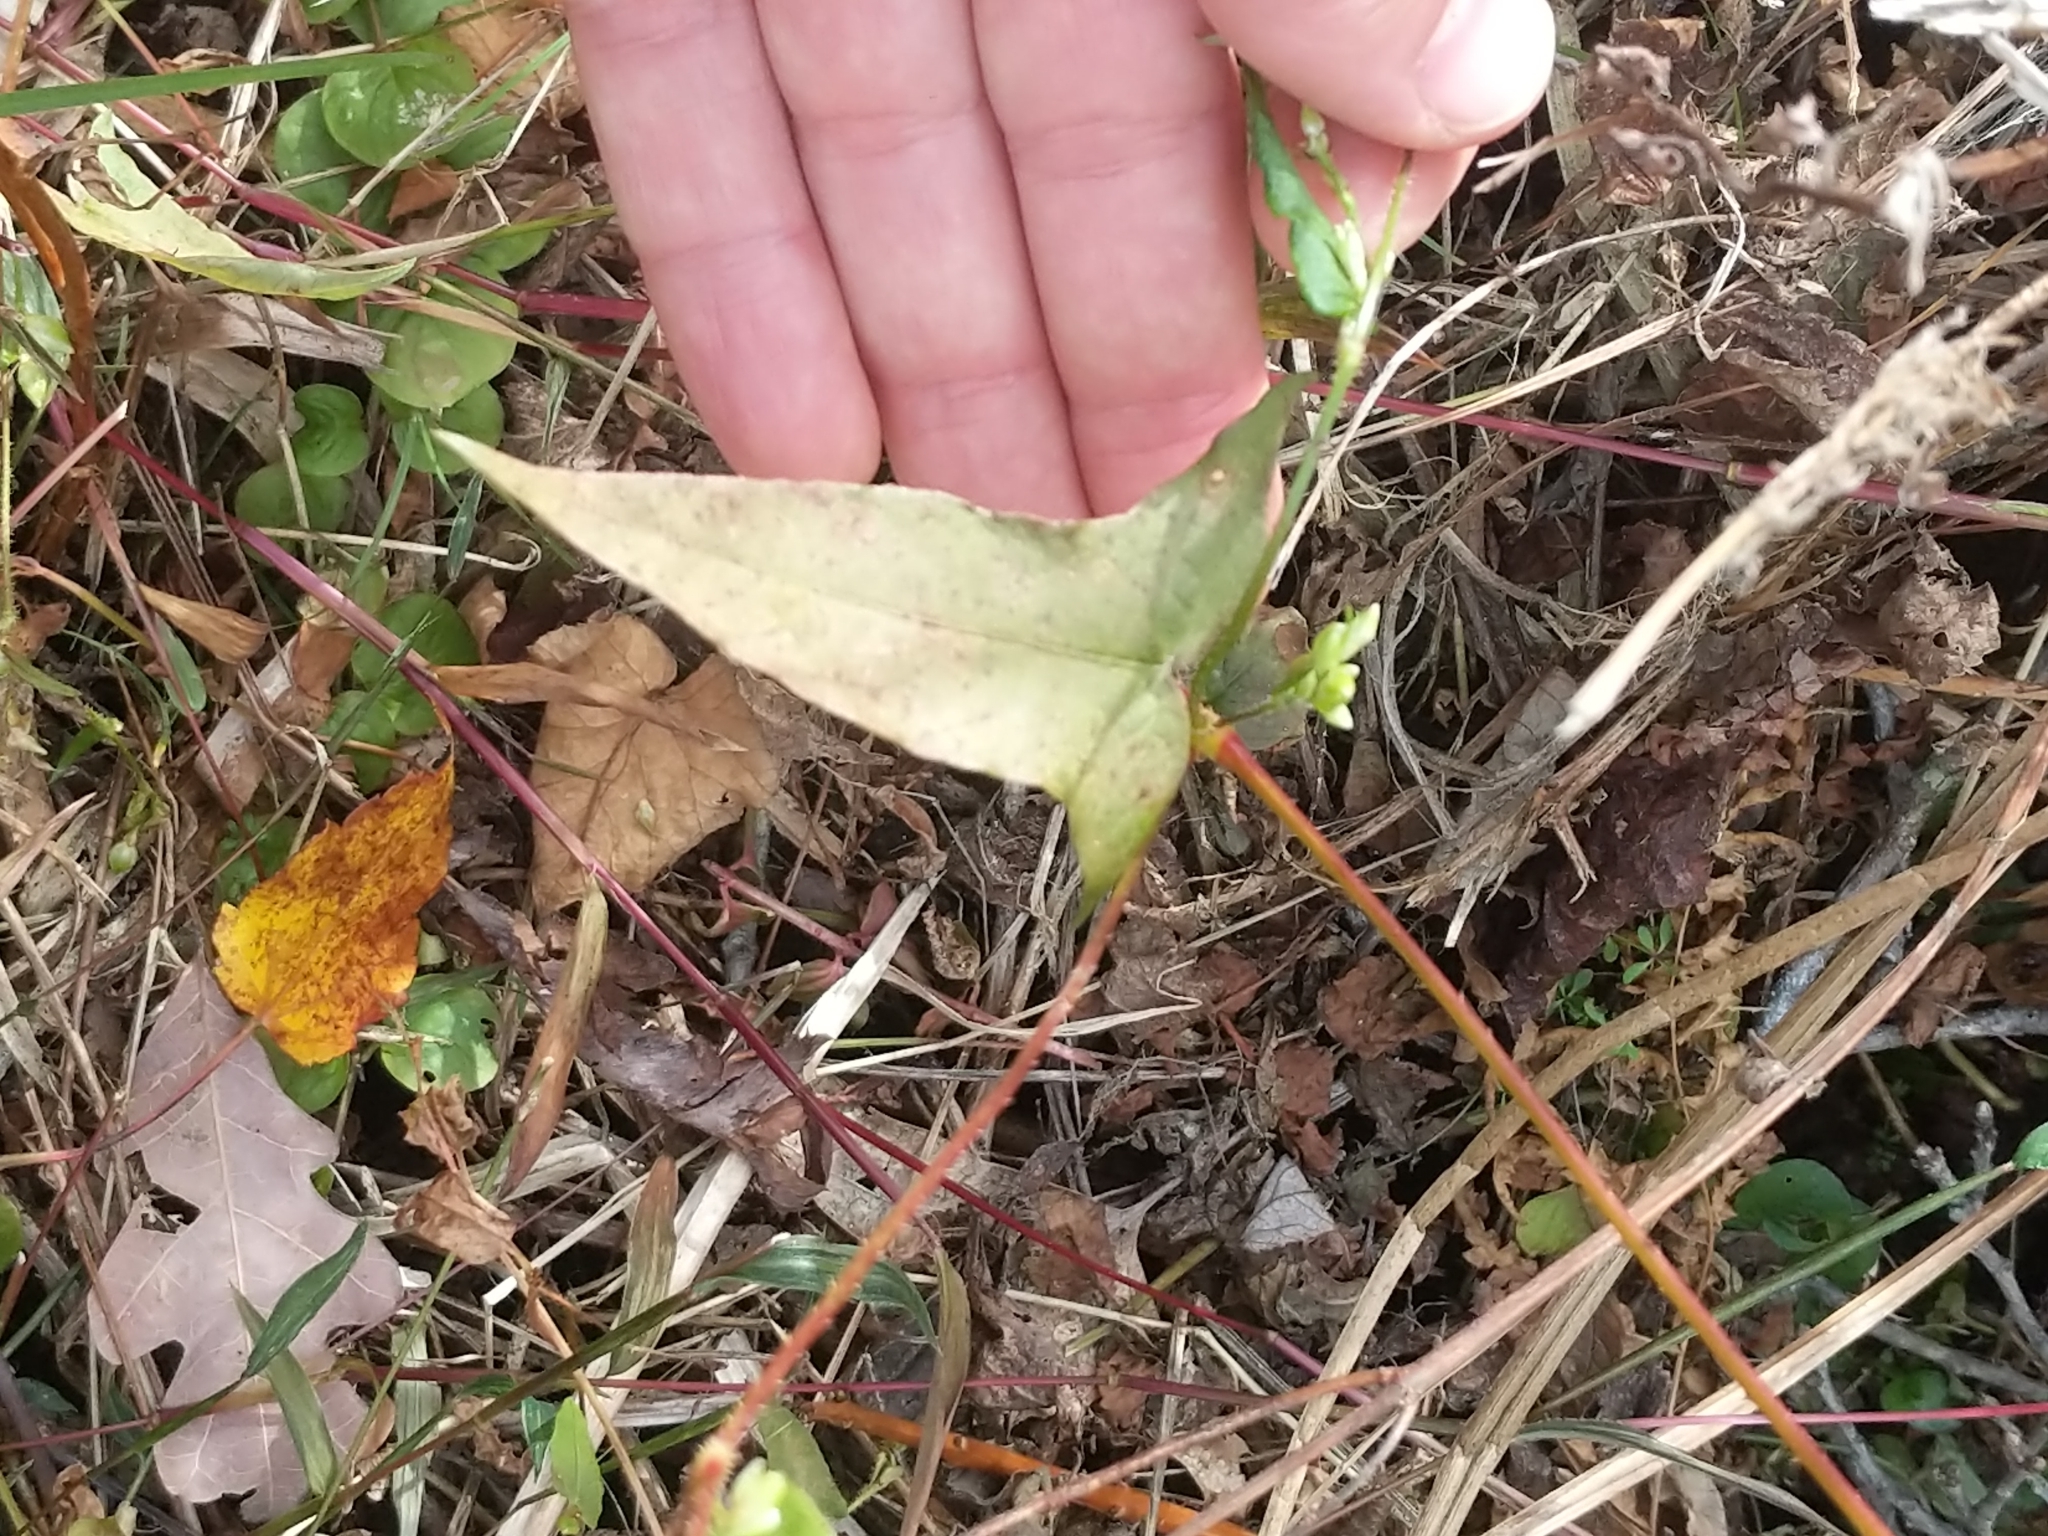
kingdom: Plantae
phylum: Tracheophyta
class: Magnoliopsida
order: Caryophyllales
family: Polygonaceae
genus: Persicaria
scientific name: Persicaria arifolia
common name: Halberd-leaved tear-thumb
